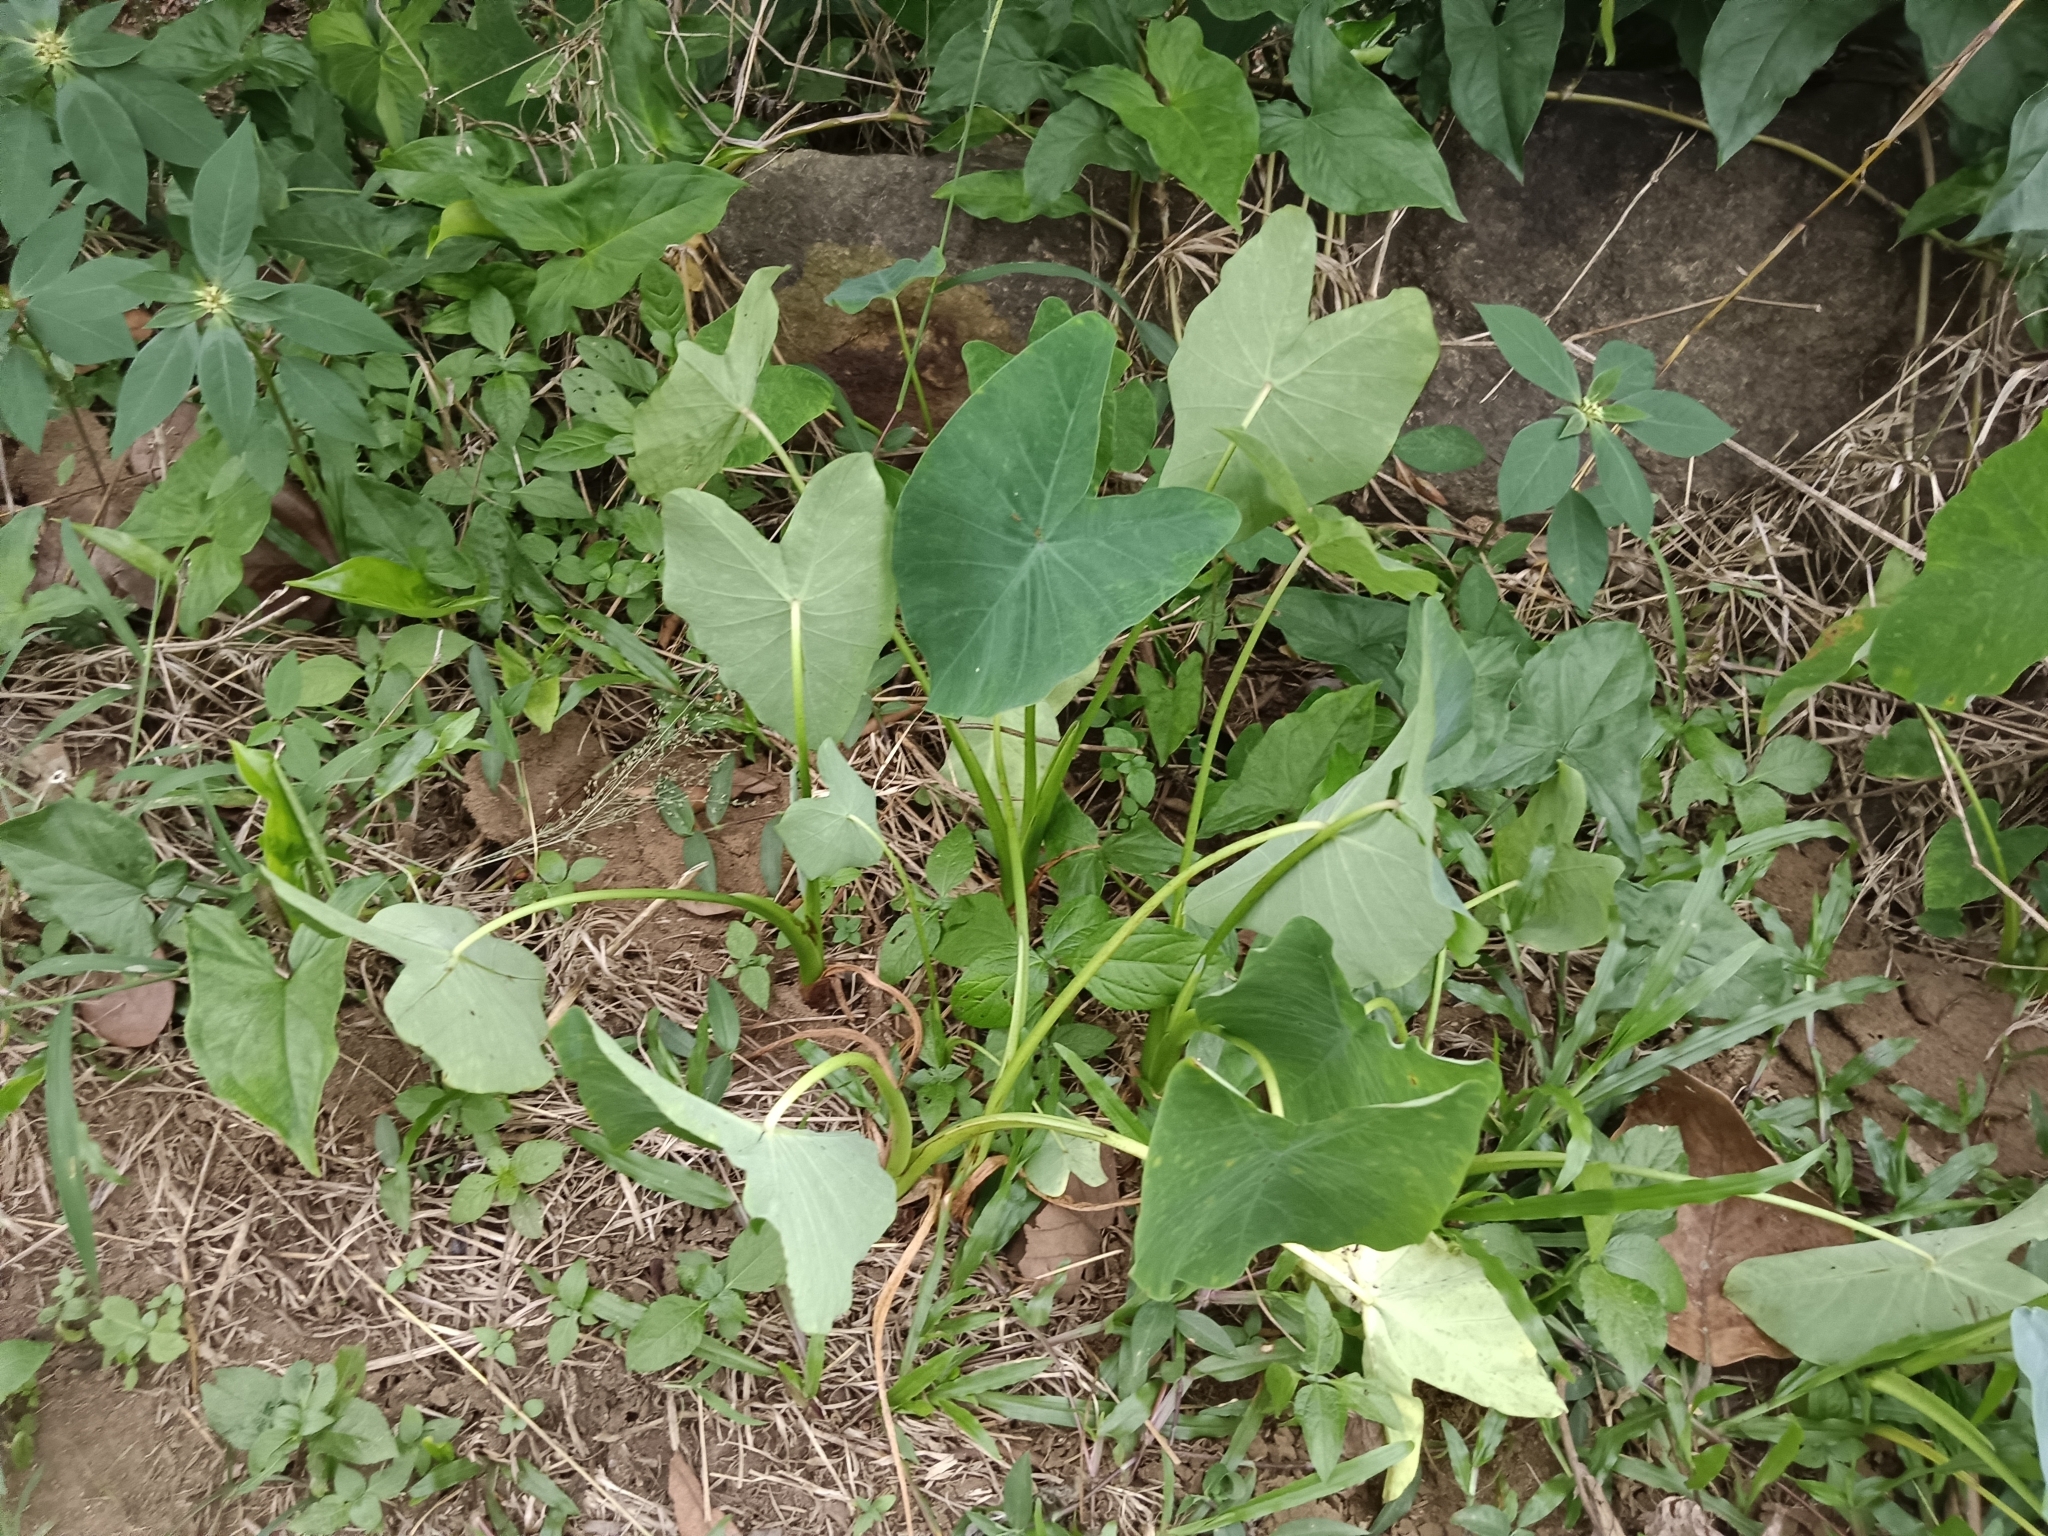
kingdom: Plantae
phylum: Tracheophyta
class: Liliopsida
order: Alismatales
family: Araceae
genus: Colocasia
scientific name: Colocasia esculenta
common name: Taro
